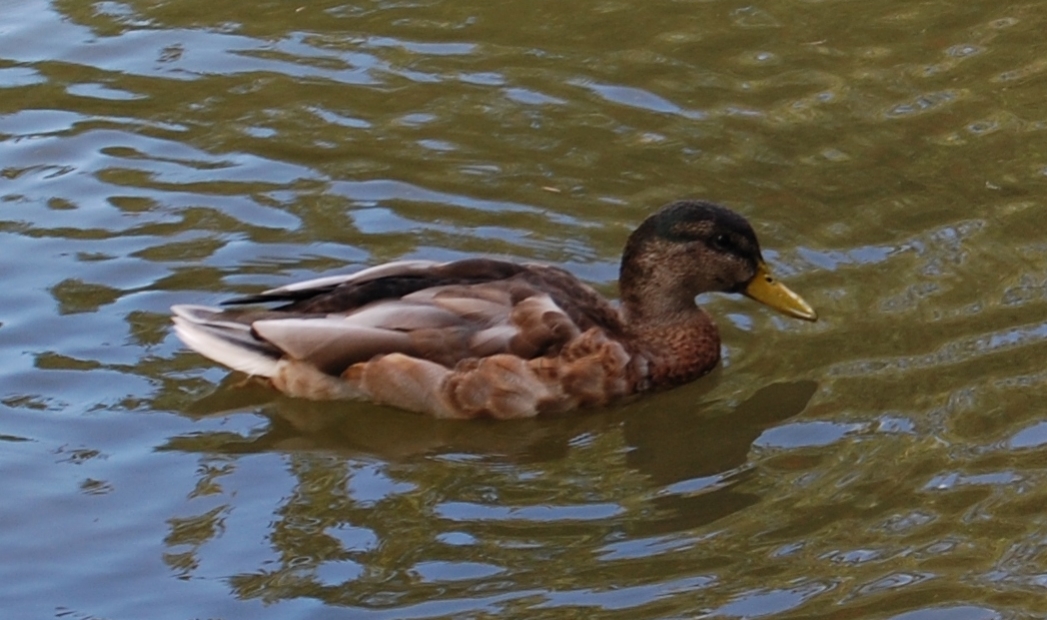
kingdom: Animalia
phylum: Chordata
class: Aves
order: Anseriformes
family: Anatidae
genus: Anas
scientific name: Anas platyrhynchos
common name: Mallard
